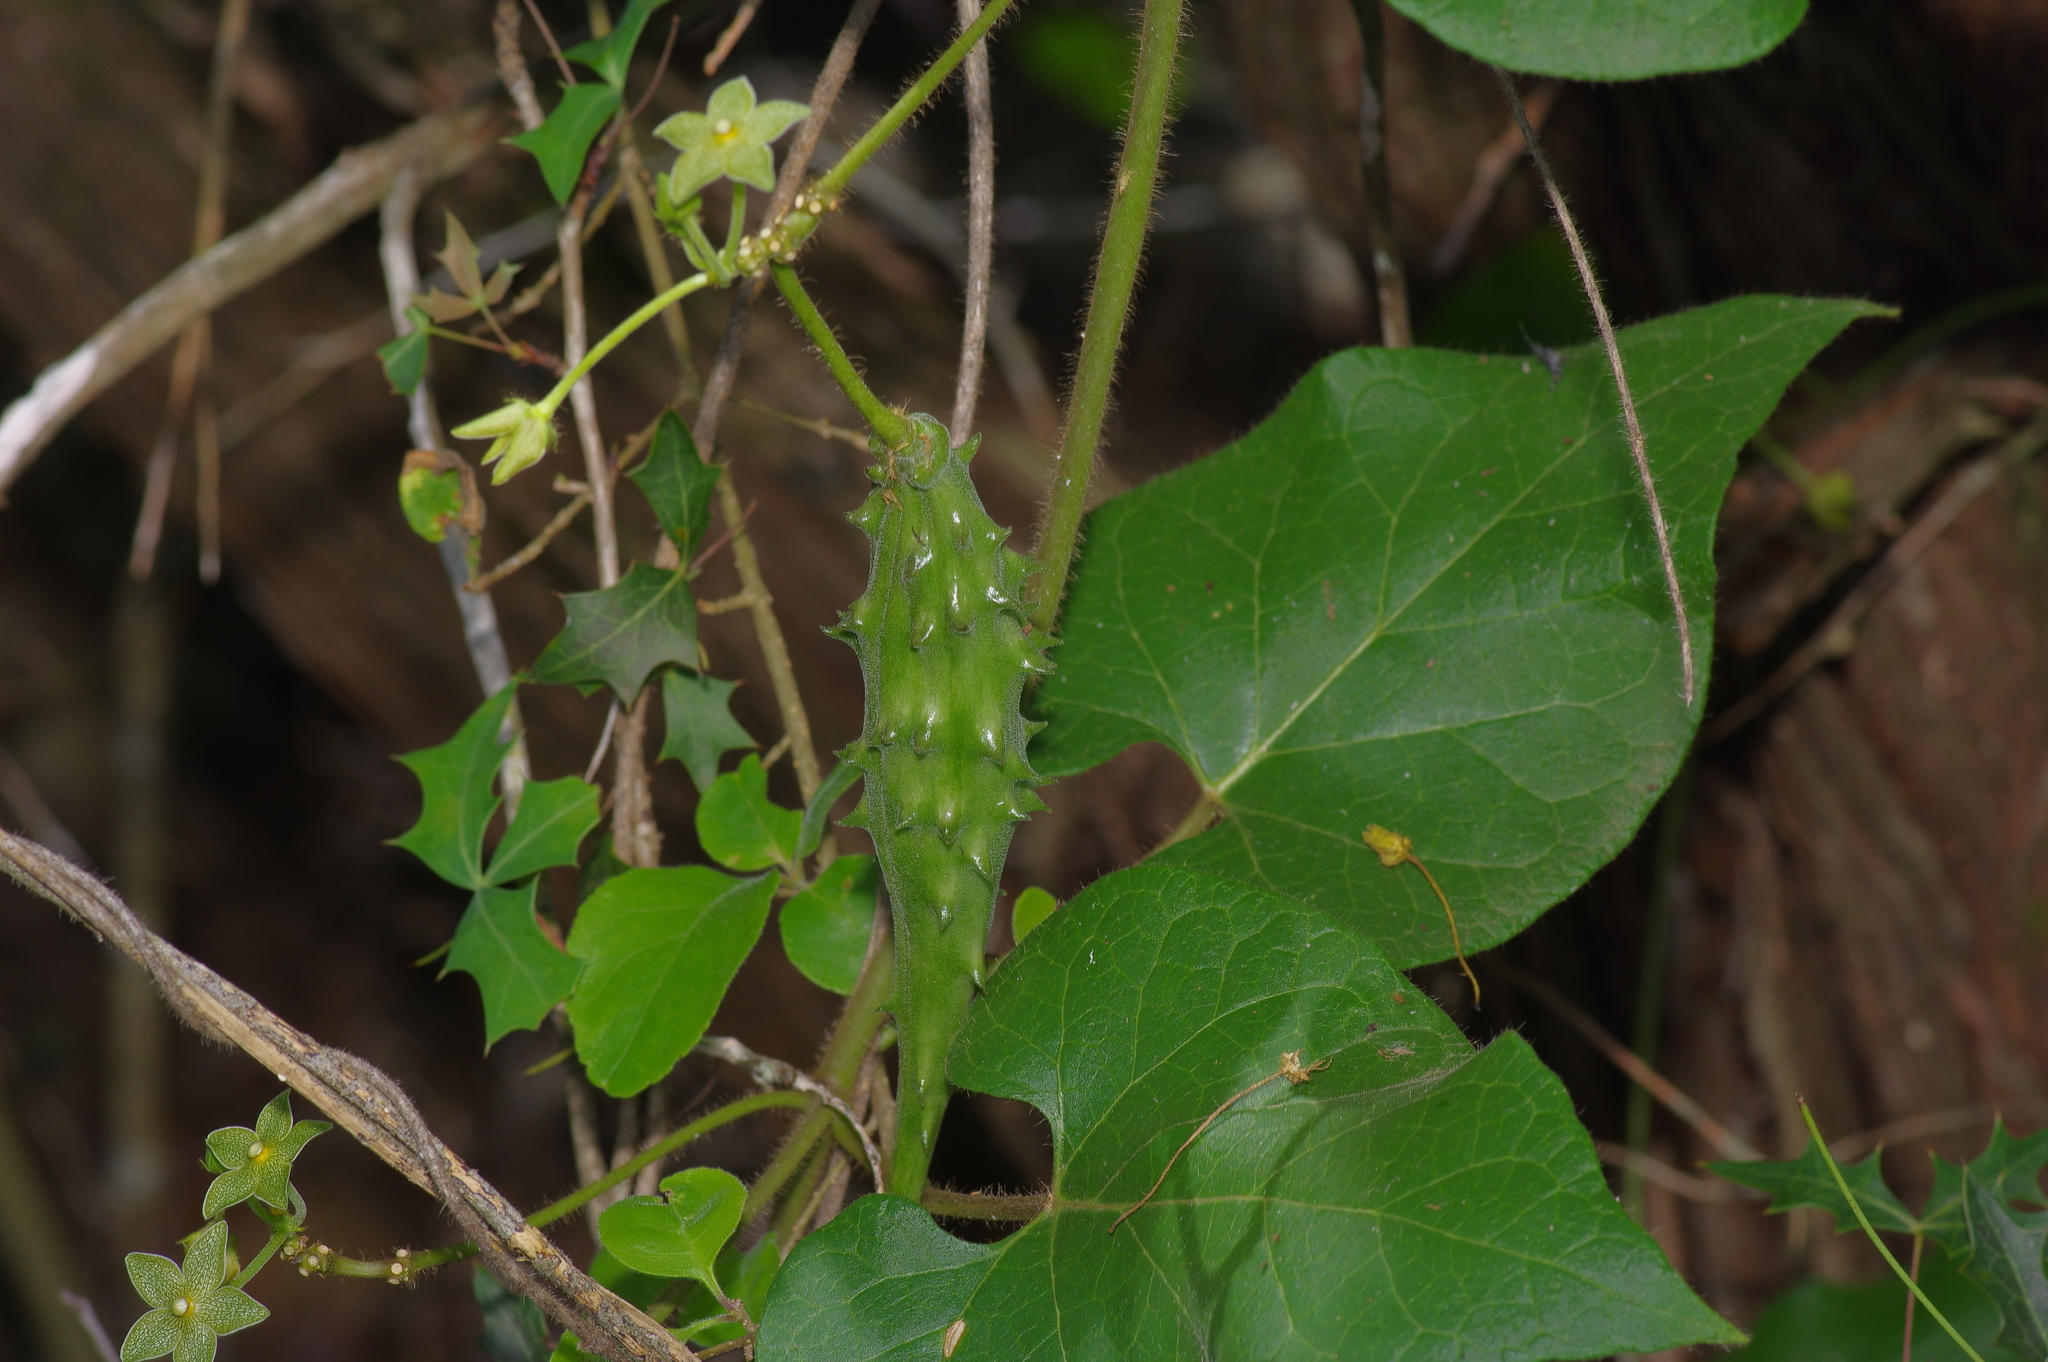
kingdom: Plantae
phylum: Tracheophyta
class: Magnoliopsida
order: Gentianales
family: Apocynaceae
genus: Dictyanthus
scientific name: Dictyanthus reticulatus
